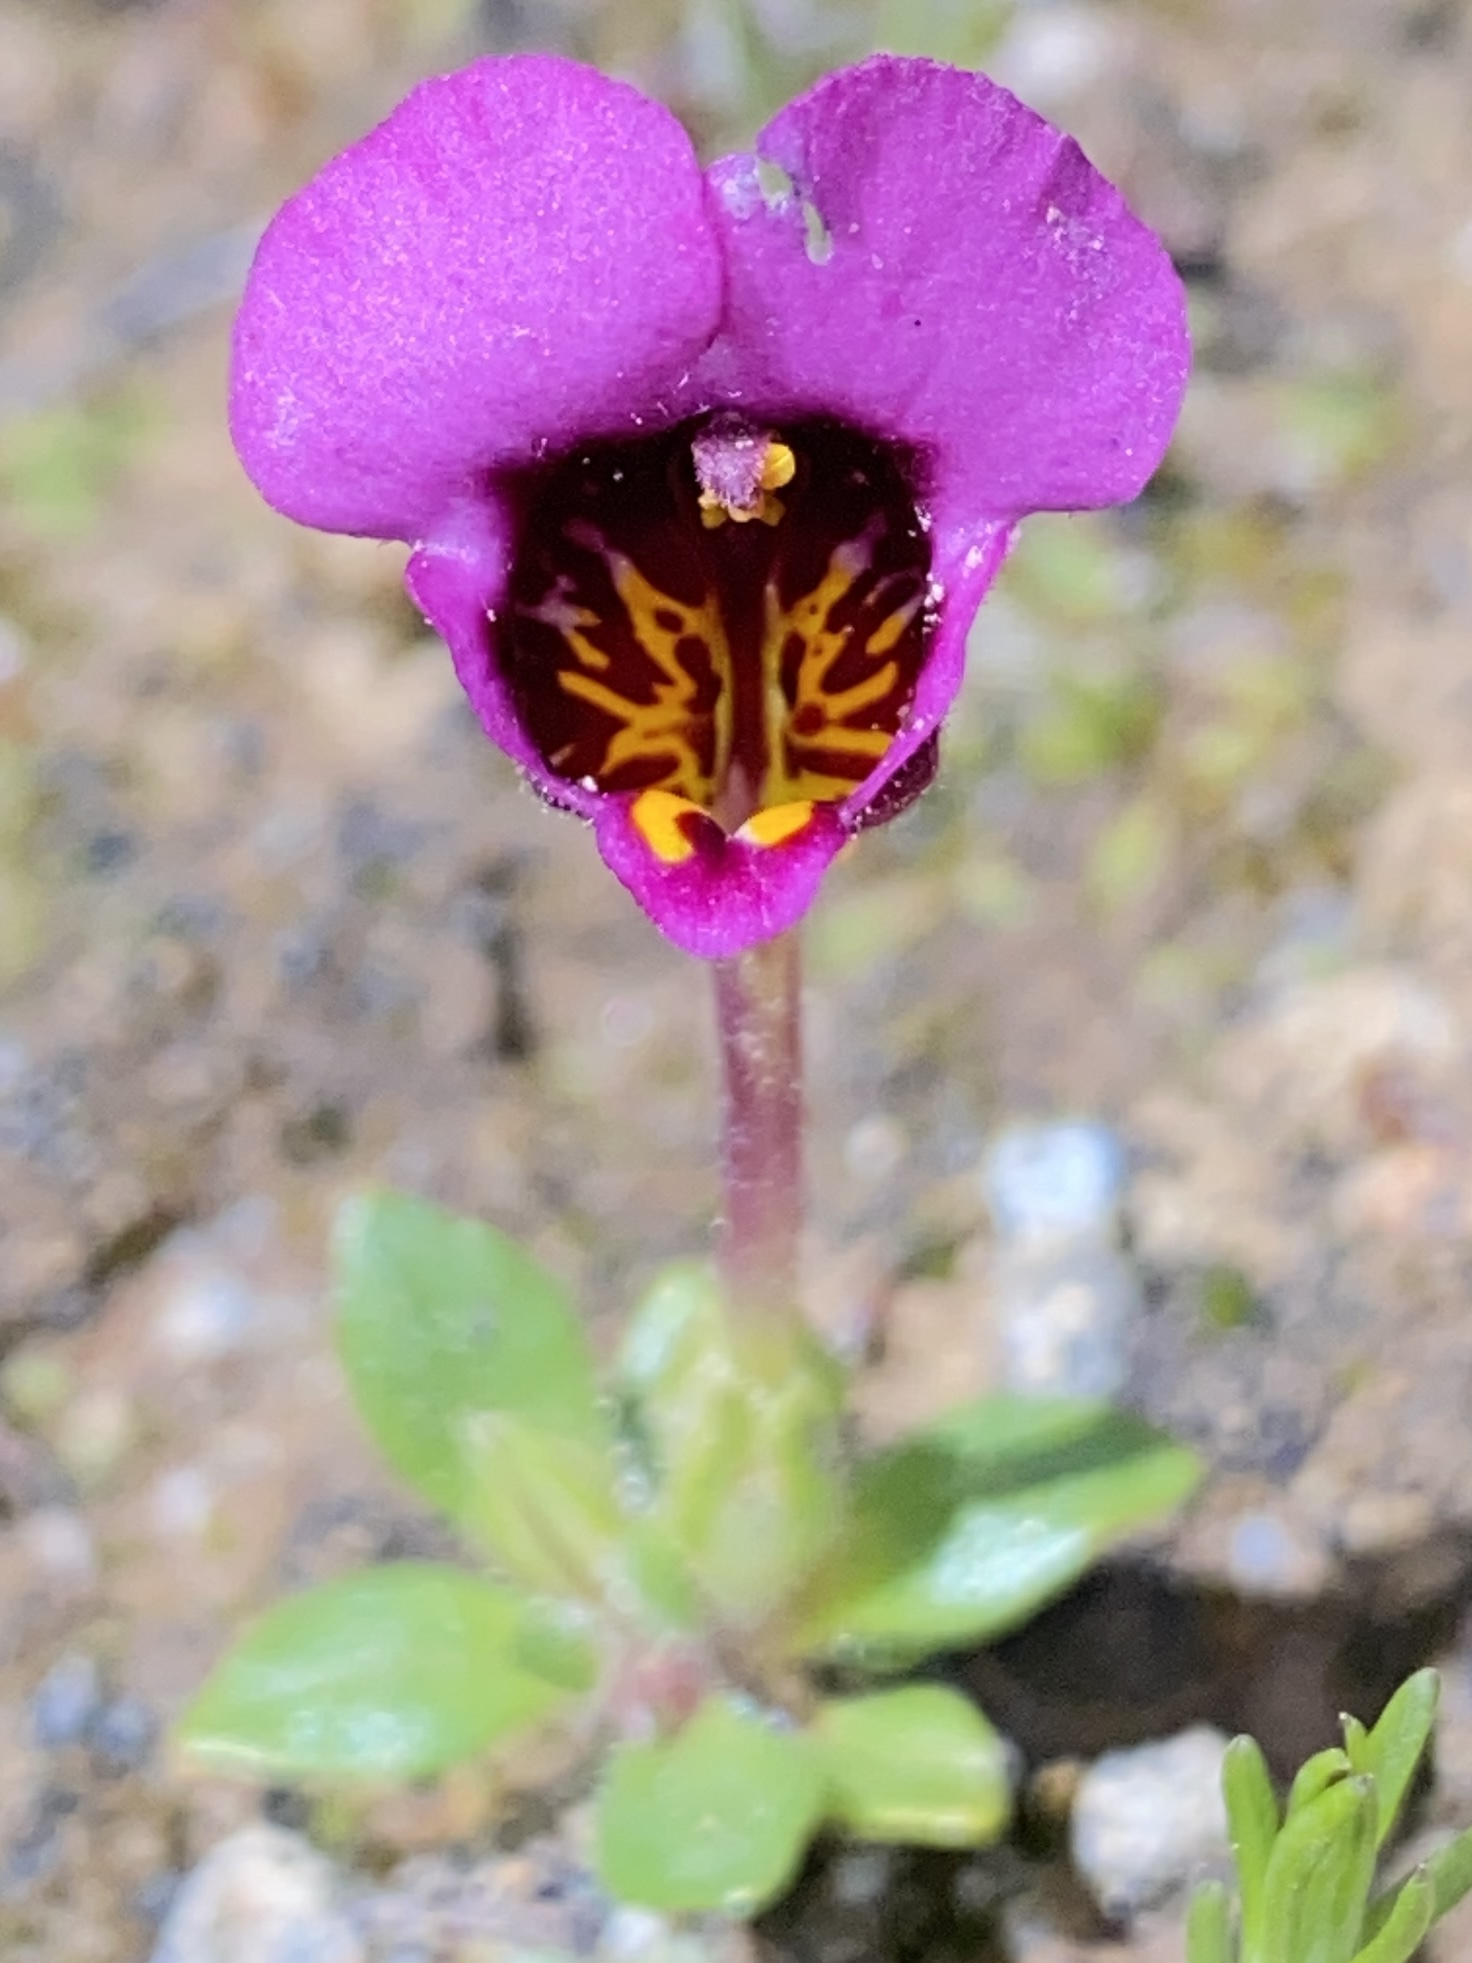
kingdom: Plantae
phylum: Tracheophyta
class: Magnoliopsida
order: Lamiales
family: Phrymaceae
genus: Diplacus
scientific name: Diplacus douglasii
